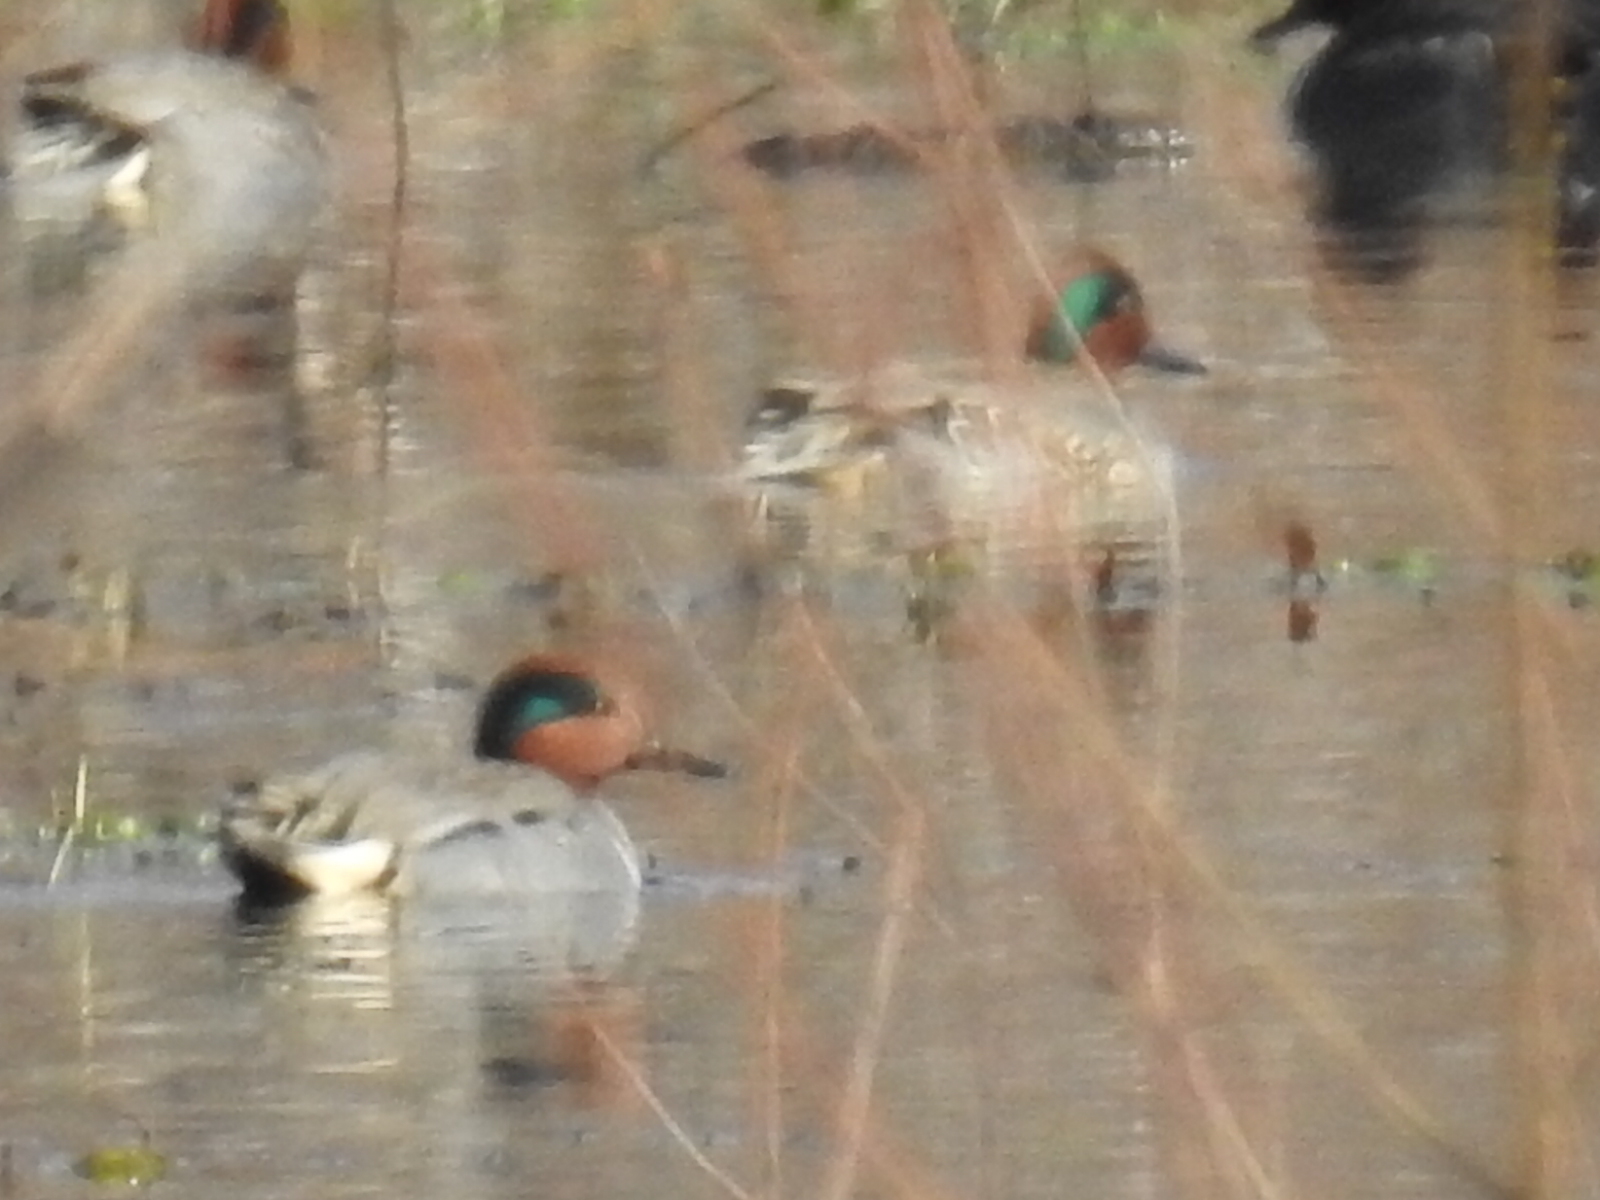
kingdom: Animalia
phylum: Chordata
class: Aves
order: Anseriformes
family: Anatidae
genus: Anas
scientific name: Anas crecca
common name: Eurasian teal
